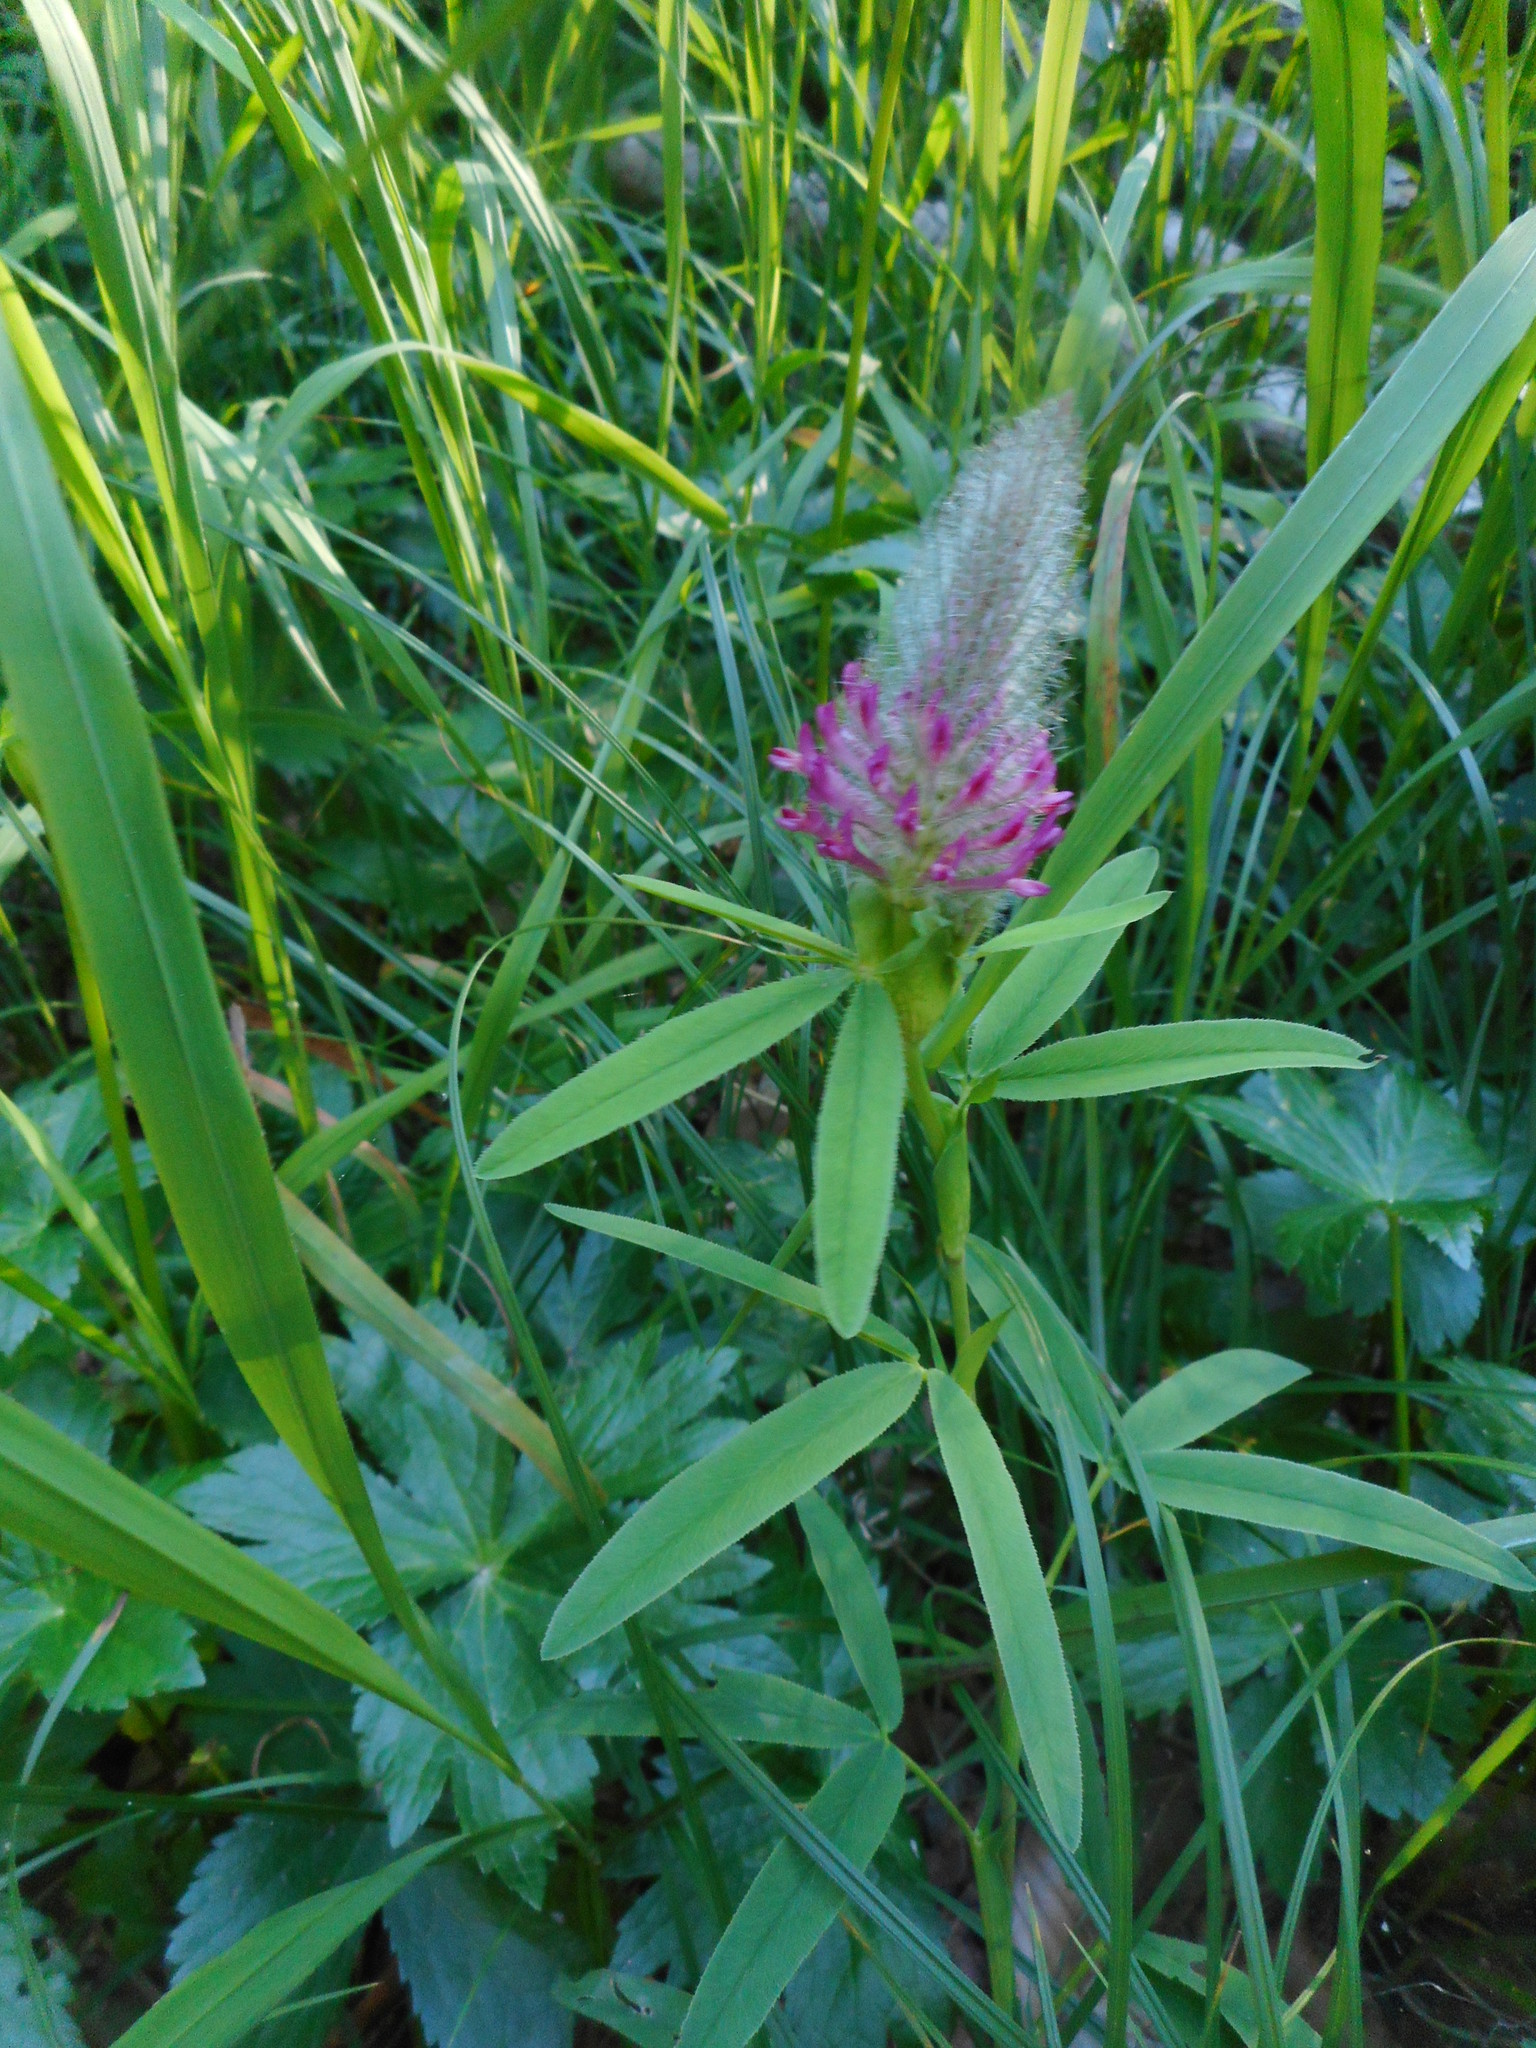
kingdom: Plantae
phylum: Tracheophyta
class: Magnoliopsida
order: Fabales
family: Fabaceae
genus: Trifolium
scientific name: Trifolium rubens
